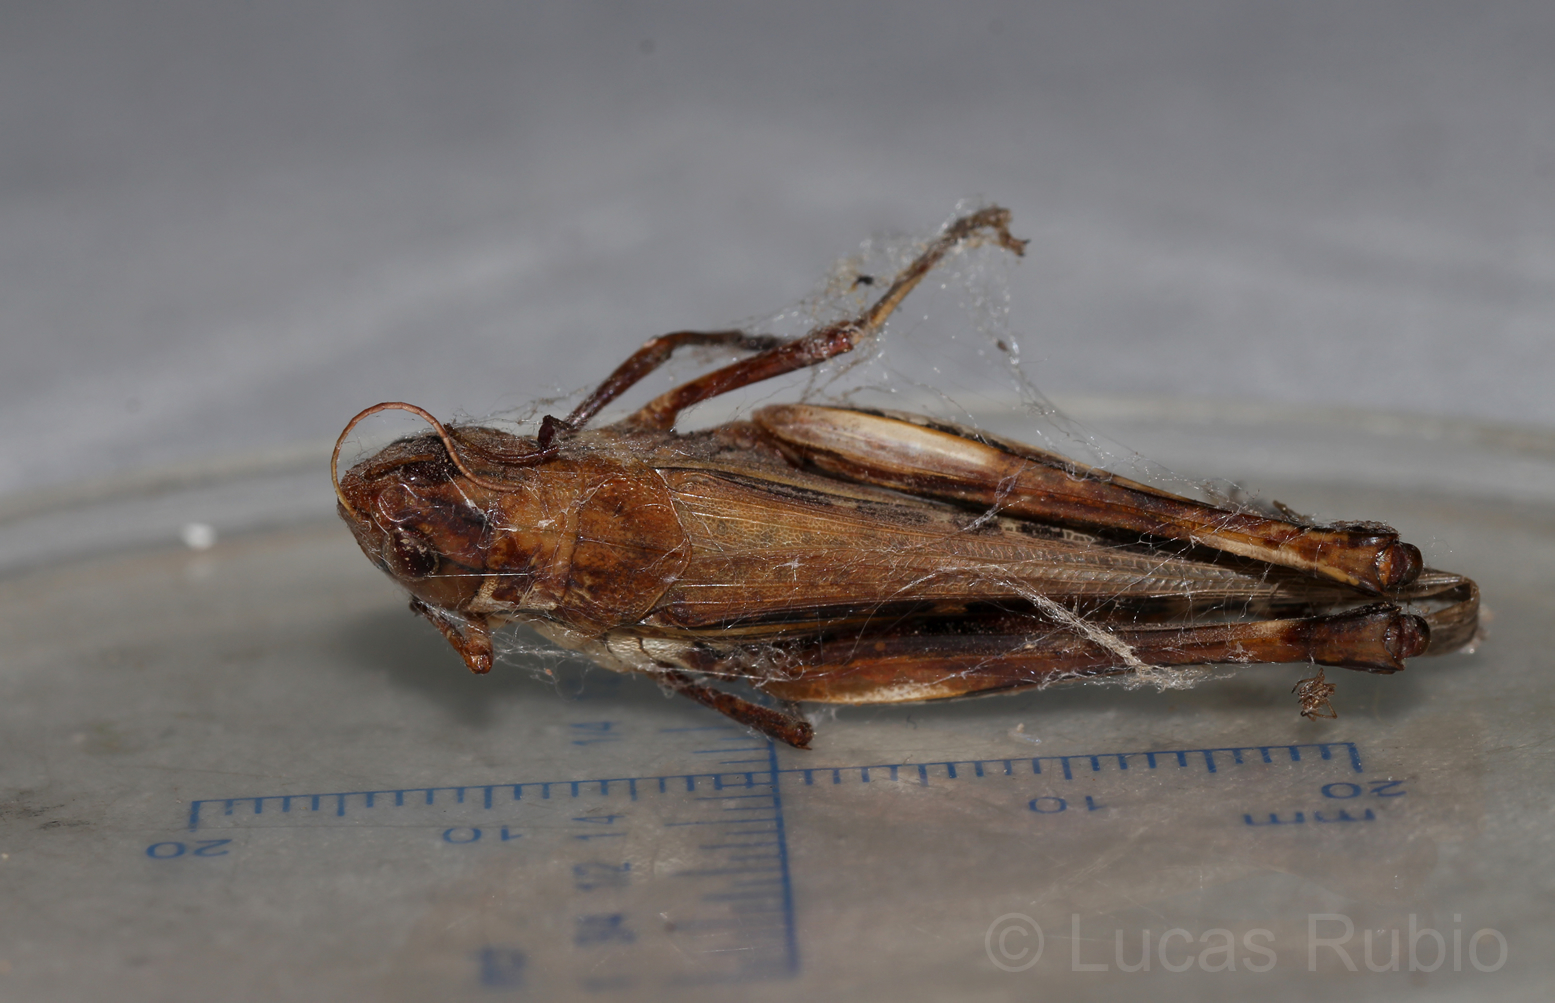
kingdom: Animalia
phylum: Arthropoda
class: Insecta
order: Orthoptera
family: Acrididae
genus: Rhammatocerus
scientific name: Rhammatocerus pictus
